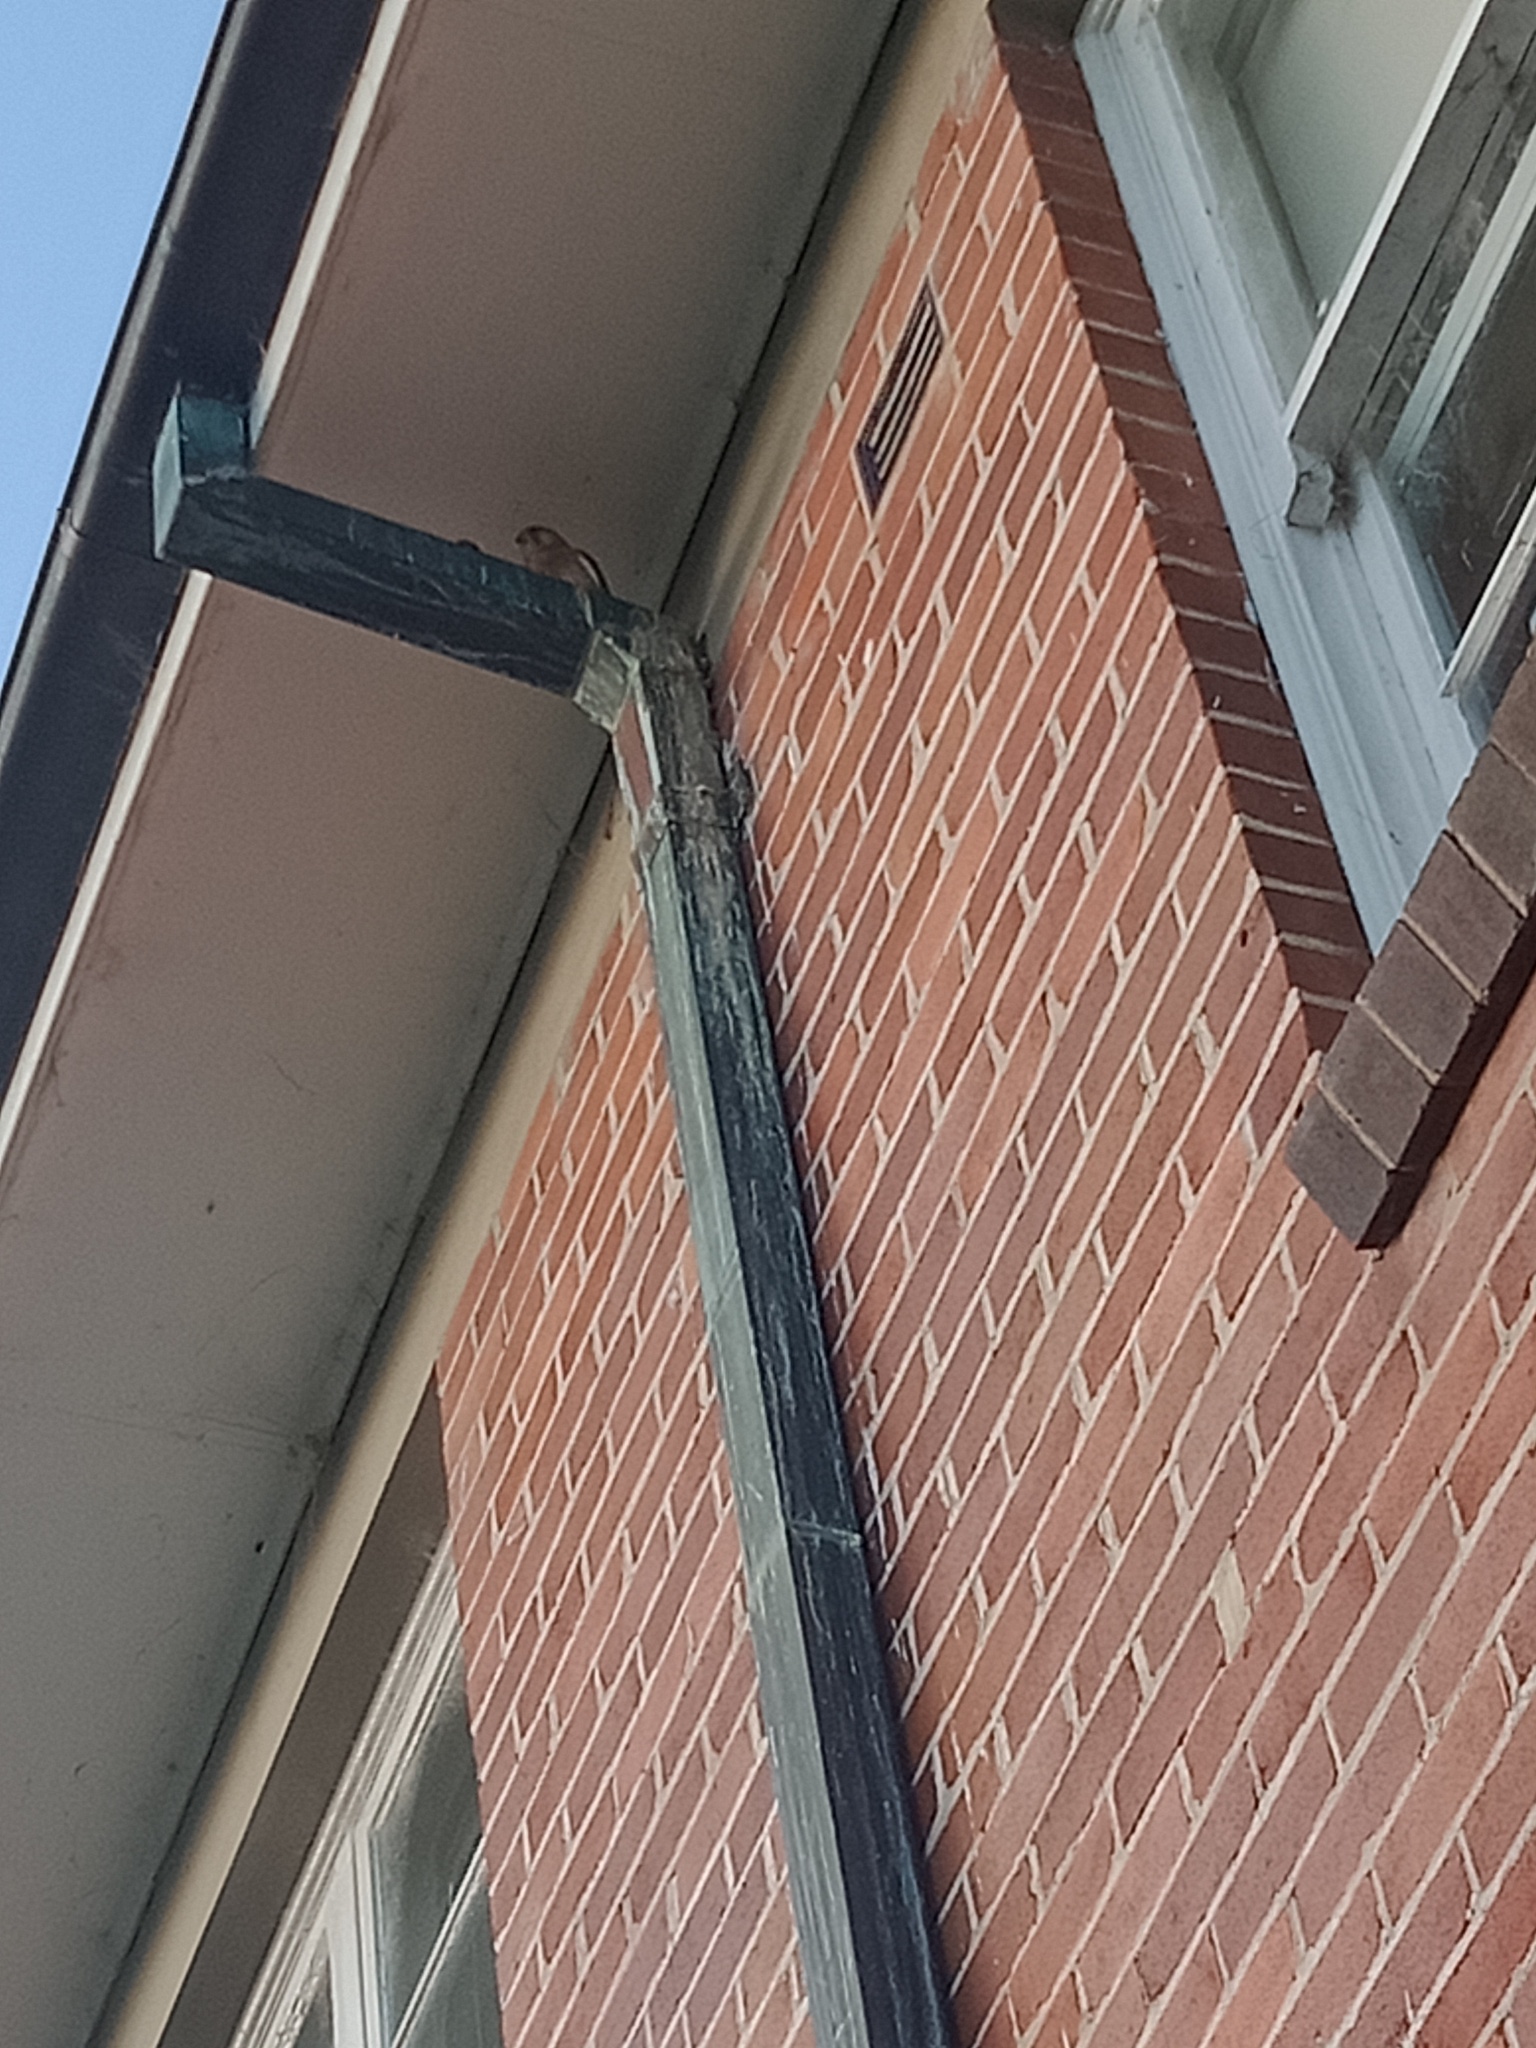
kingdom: Animalia
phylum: Chordata
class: Aves
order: Falconiformes
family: Falconidae
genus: Falco
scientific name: Falco cenchroides
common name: Nankeen kestrel
